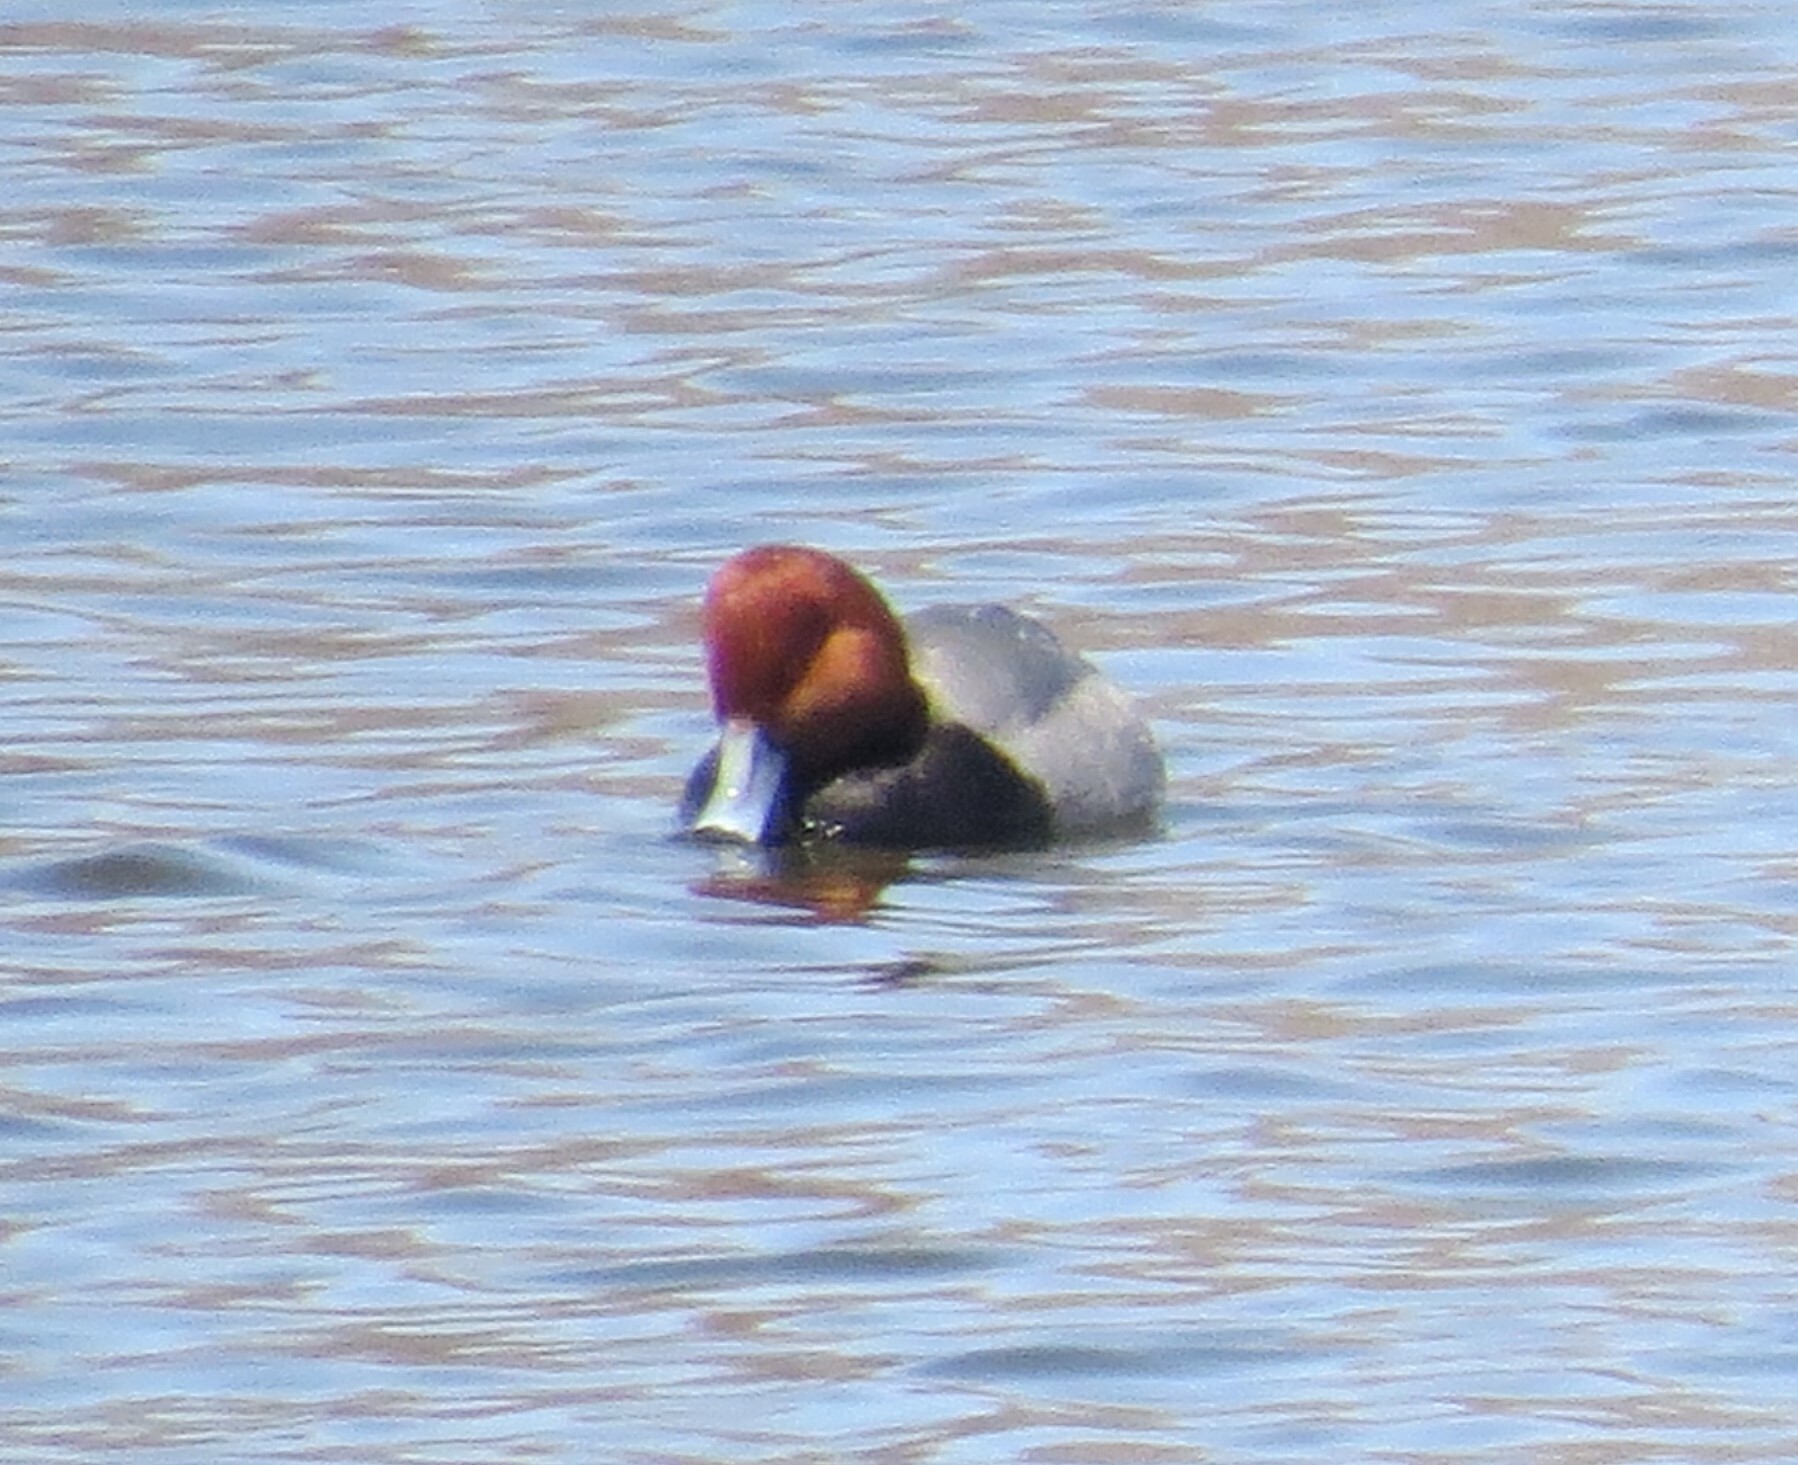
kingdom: Animalia
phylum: Chordata
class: Aves
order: Anseriformes
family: Anatidae
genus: Aythya
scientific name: Aythya americana
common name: Redhead
